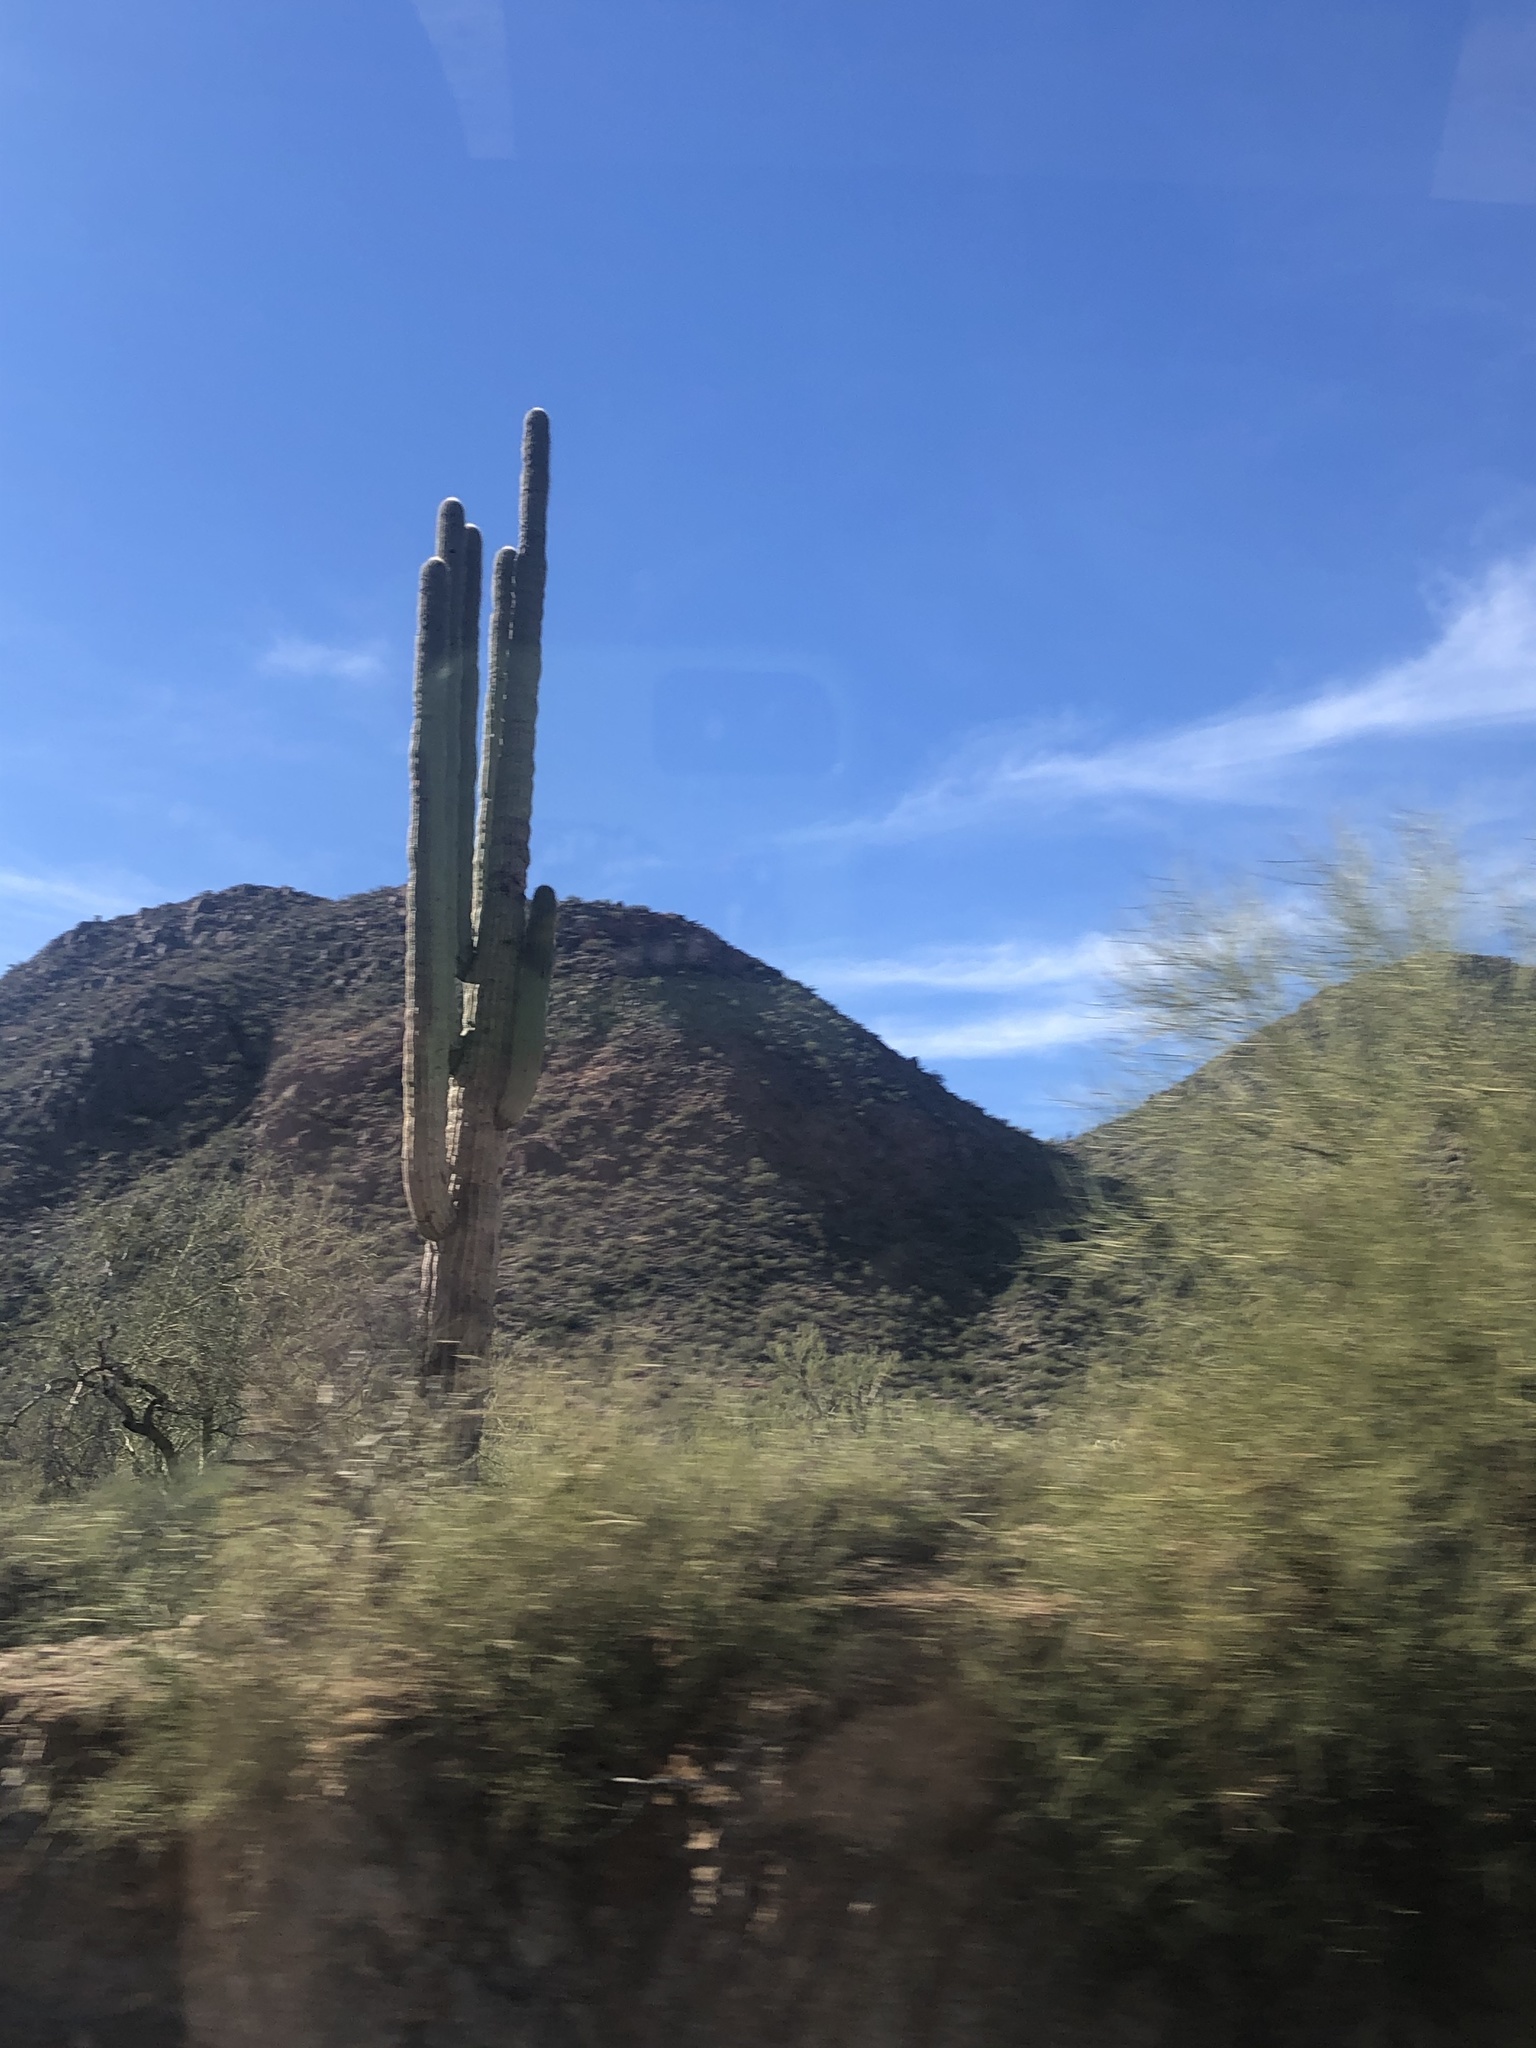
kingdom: Plantae
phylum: Tracheophyta
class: Magnoliopsida
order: Caryophyllales
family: Cactaceae
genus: Carnegiea
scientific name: Carnegiea gigantea
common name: Saguaro
